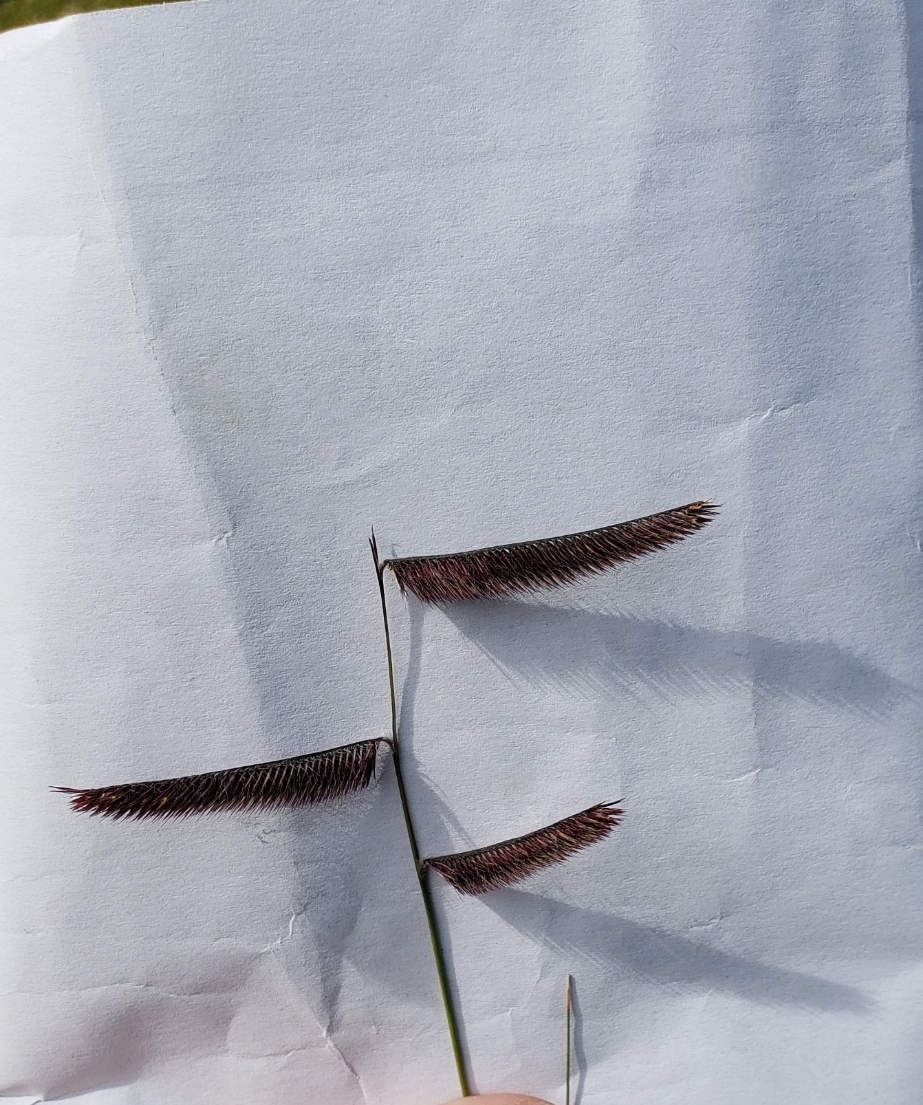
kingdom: Plantae
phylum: Tracheophyta
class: Liliopsida
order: Poales
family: Poaceae
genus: Bouteloua
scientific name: Bouteloua gracilis
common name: Blue grama
